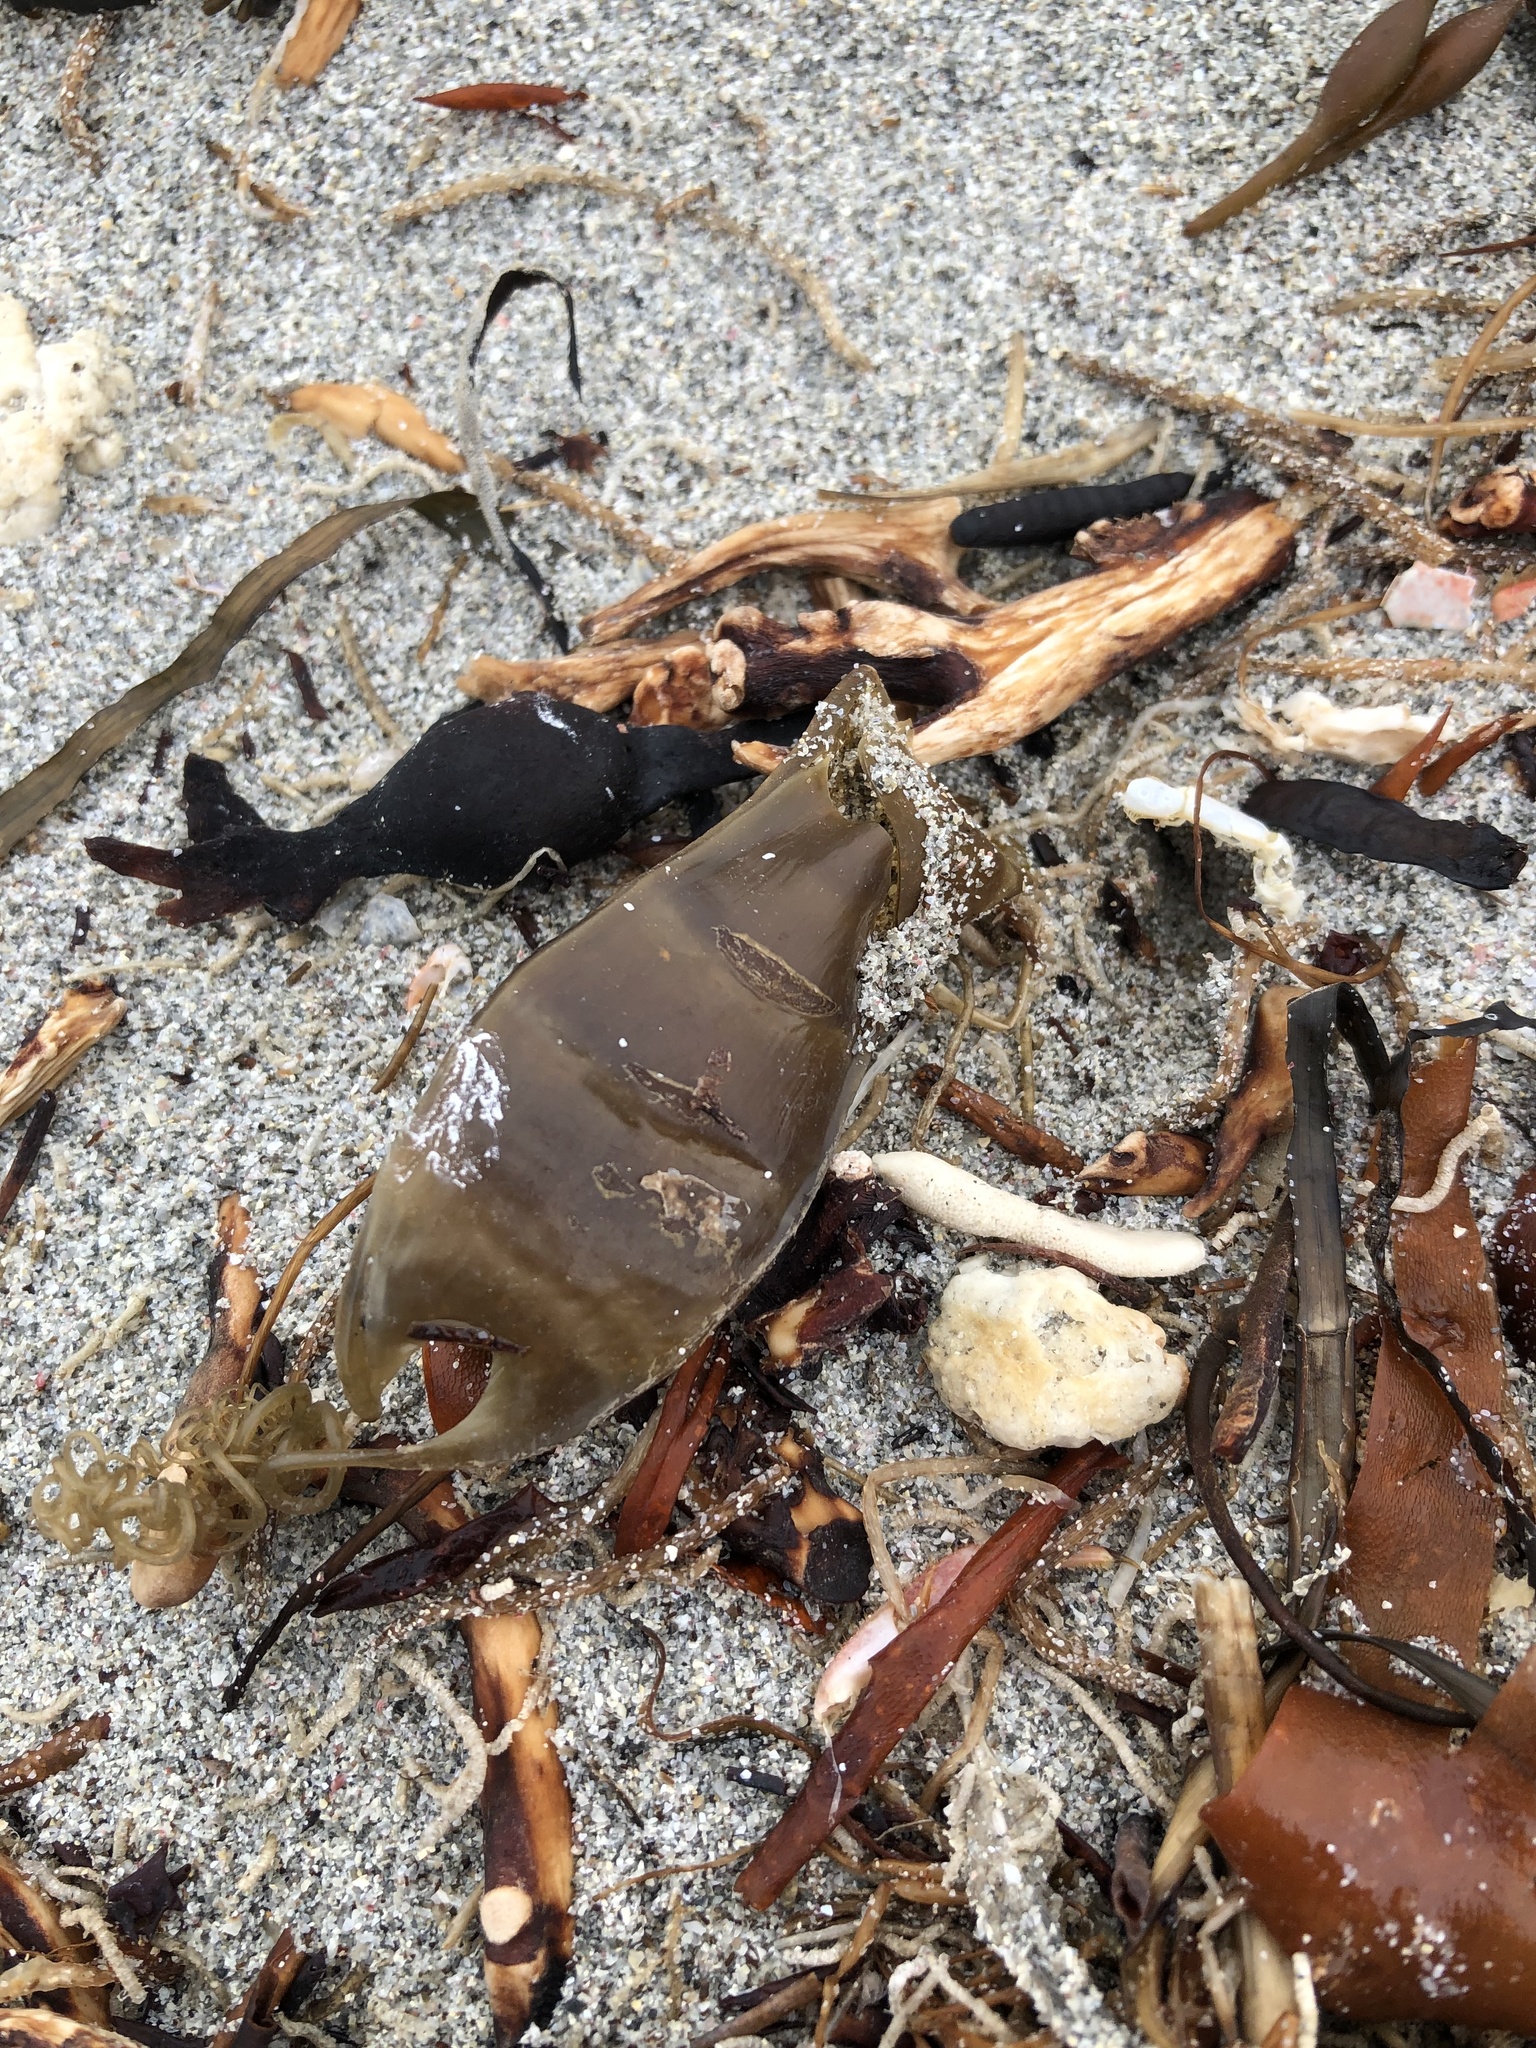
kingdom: Animalia
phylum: Chordata
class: Elasmobranchii
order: Carcharhiniformes
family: Scyliorhinidae
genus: Scyliorhinus
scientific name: Scyliorhinus canicula
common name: Lesser spotted dogfish
